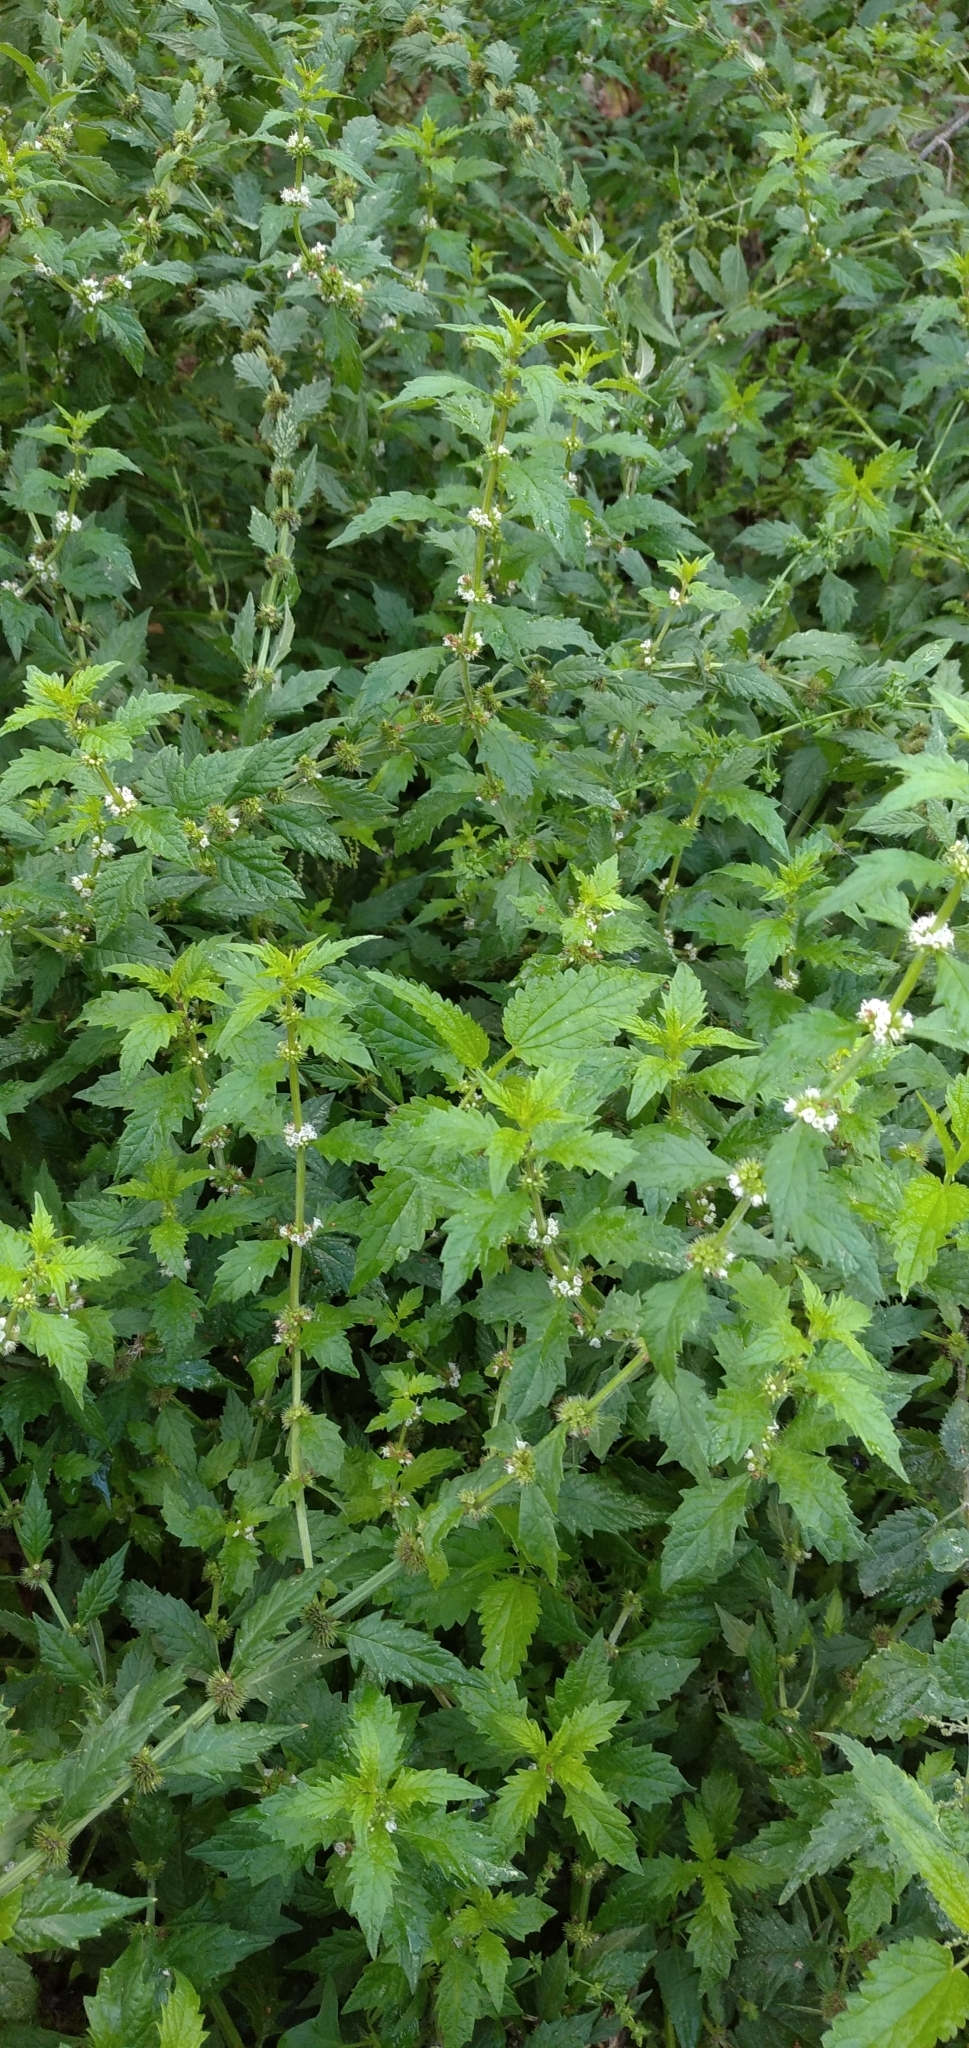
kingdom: Plantae
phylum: Tracheophyta
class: Magnoliopsida
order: Lamiales
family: Lamiaceae
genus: Lycopus
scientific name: Lycopus europaeus
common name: European bugleweed
